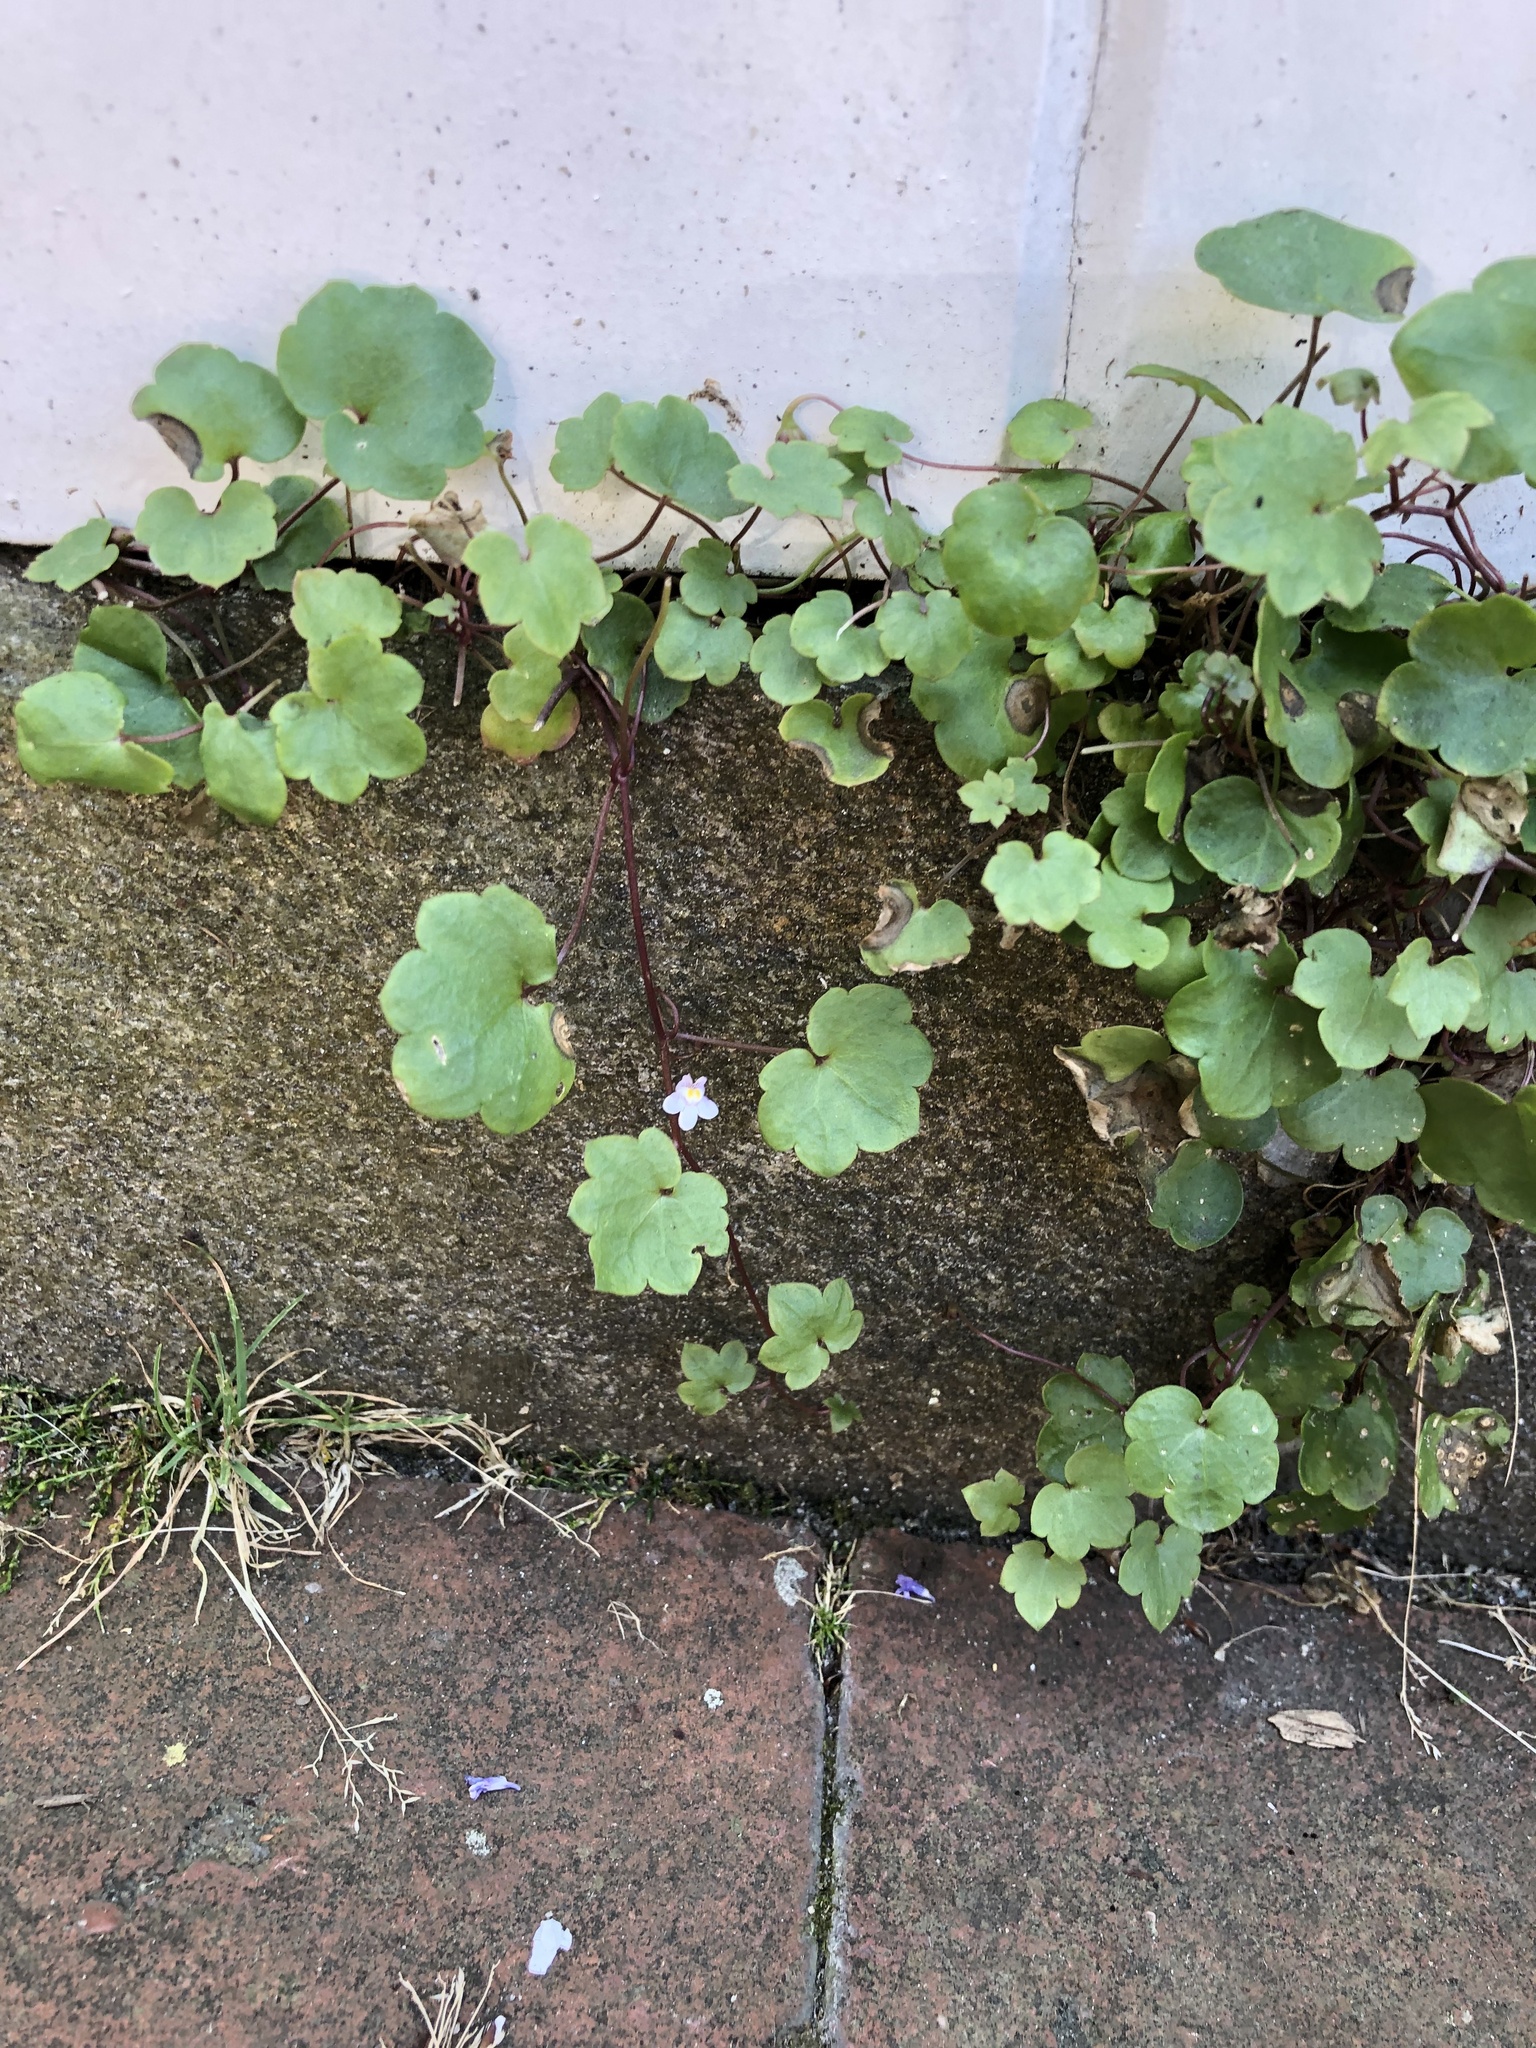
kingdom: Plantae
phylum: Tracheophyta
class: Magnoliopsida
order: Lamiales
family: Plantaginaceae
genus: Cymbalaria
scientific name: Cymbalaria muralis
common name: Ivy-leaved toadflax
